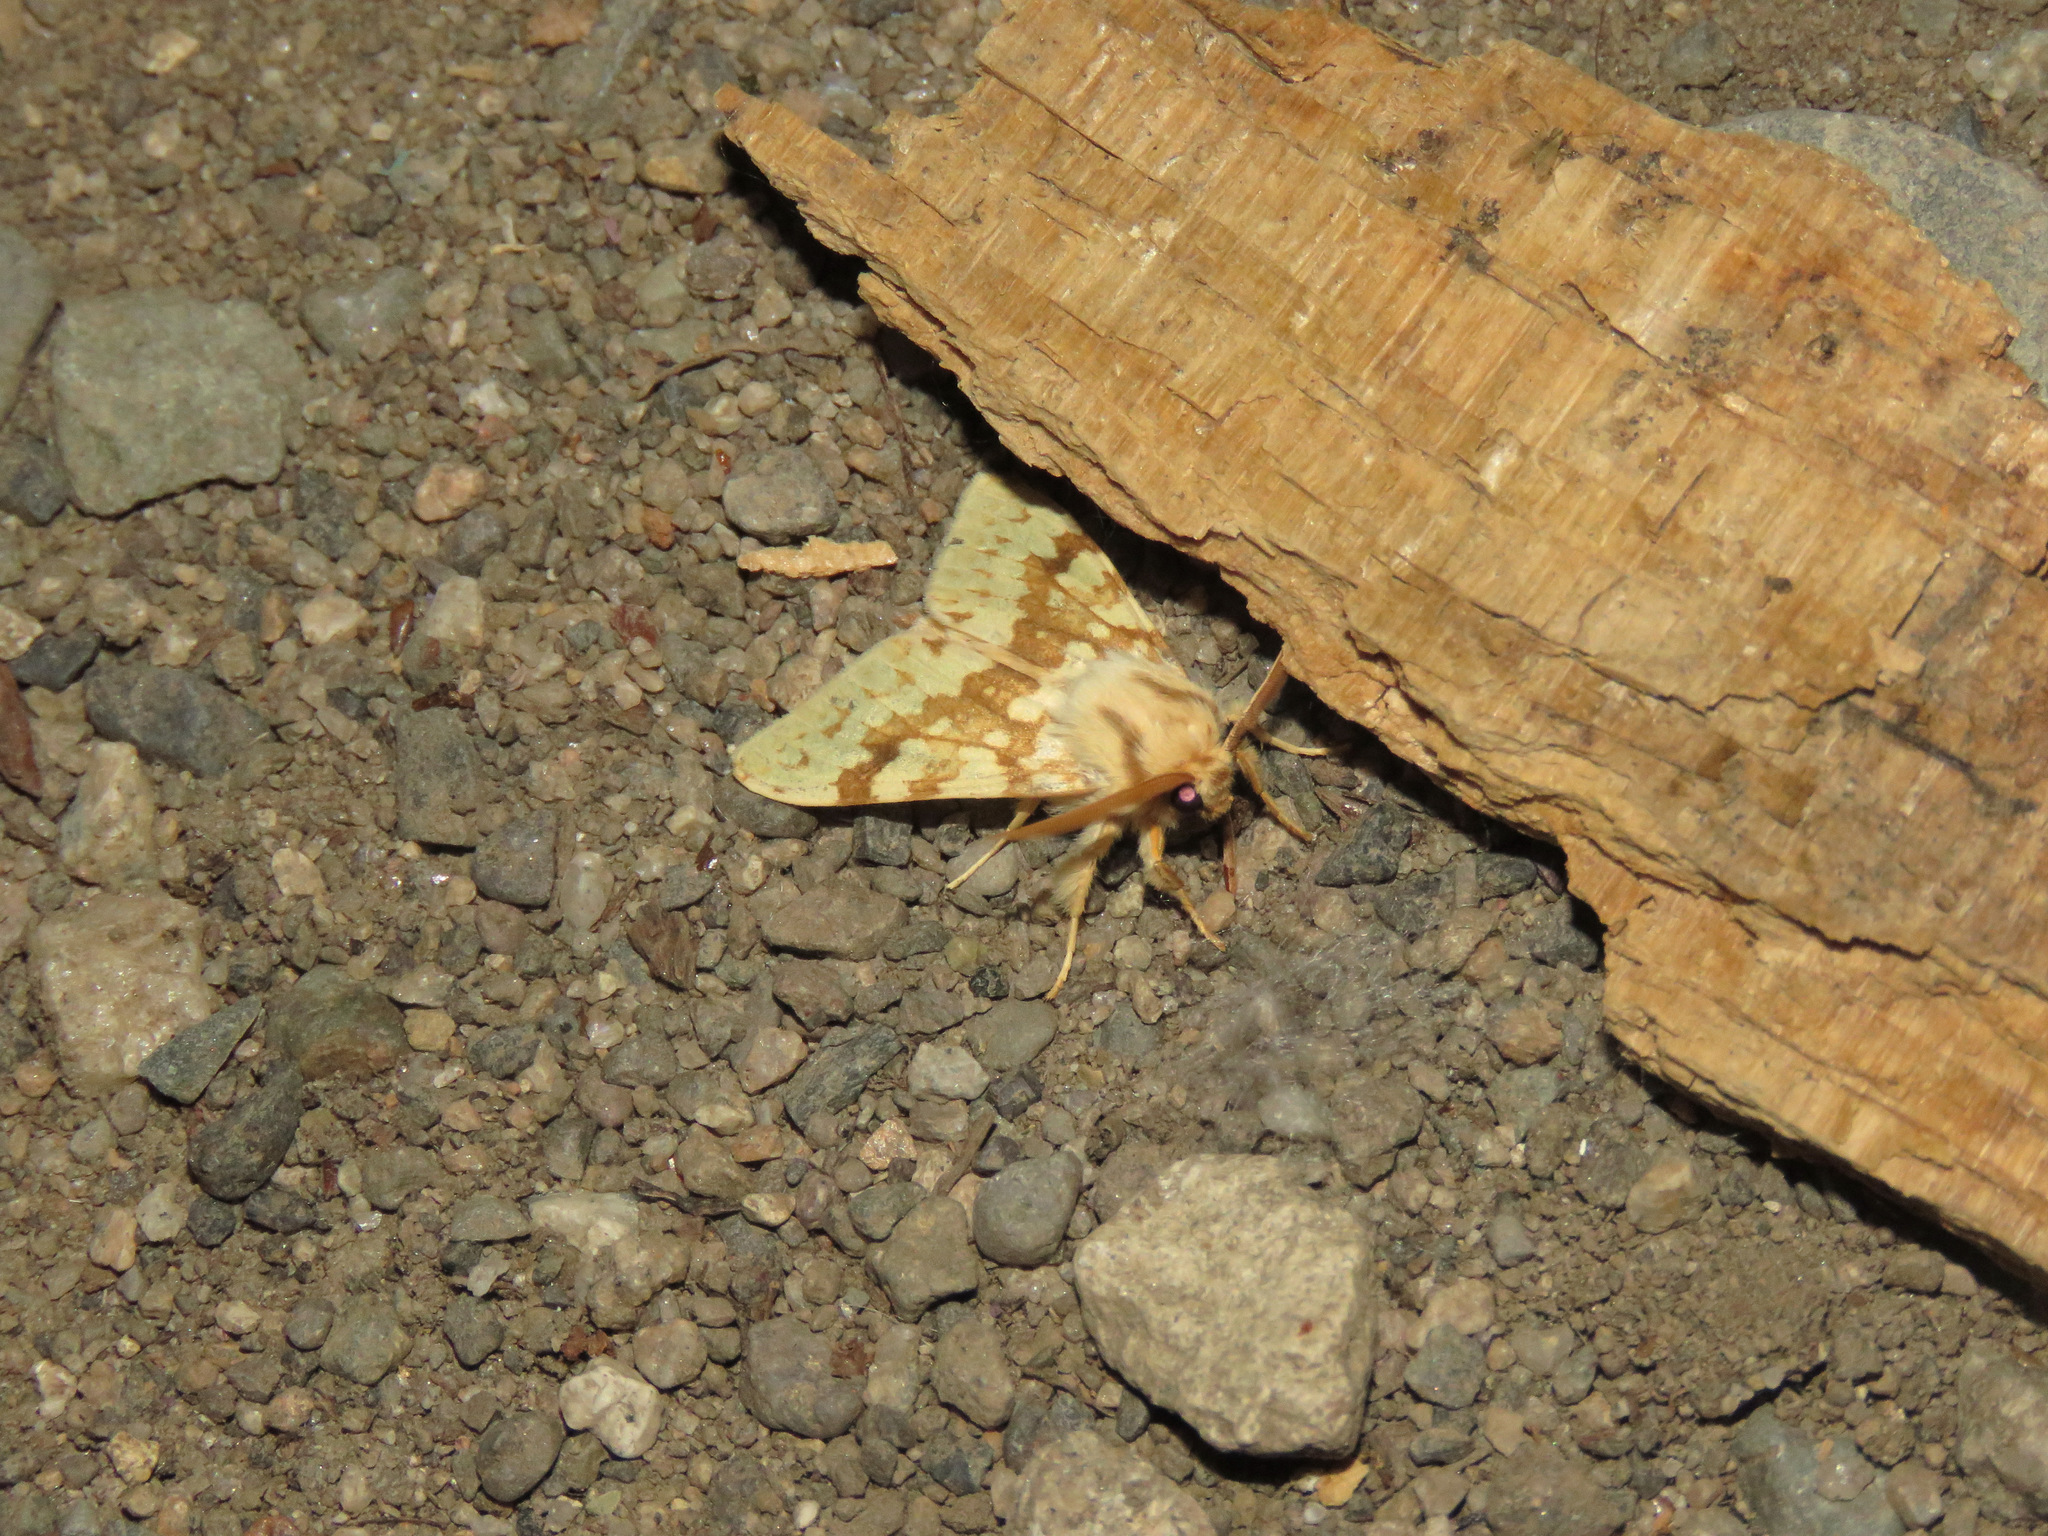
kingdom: Animalia
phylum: Arthropoda
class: Insecta
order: Lepidoptera
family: Erebidae
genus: Lophocampa
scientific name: Lophocampa maculata
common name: Spotted tussock moth
